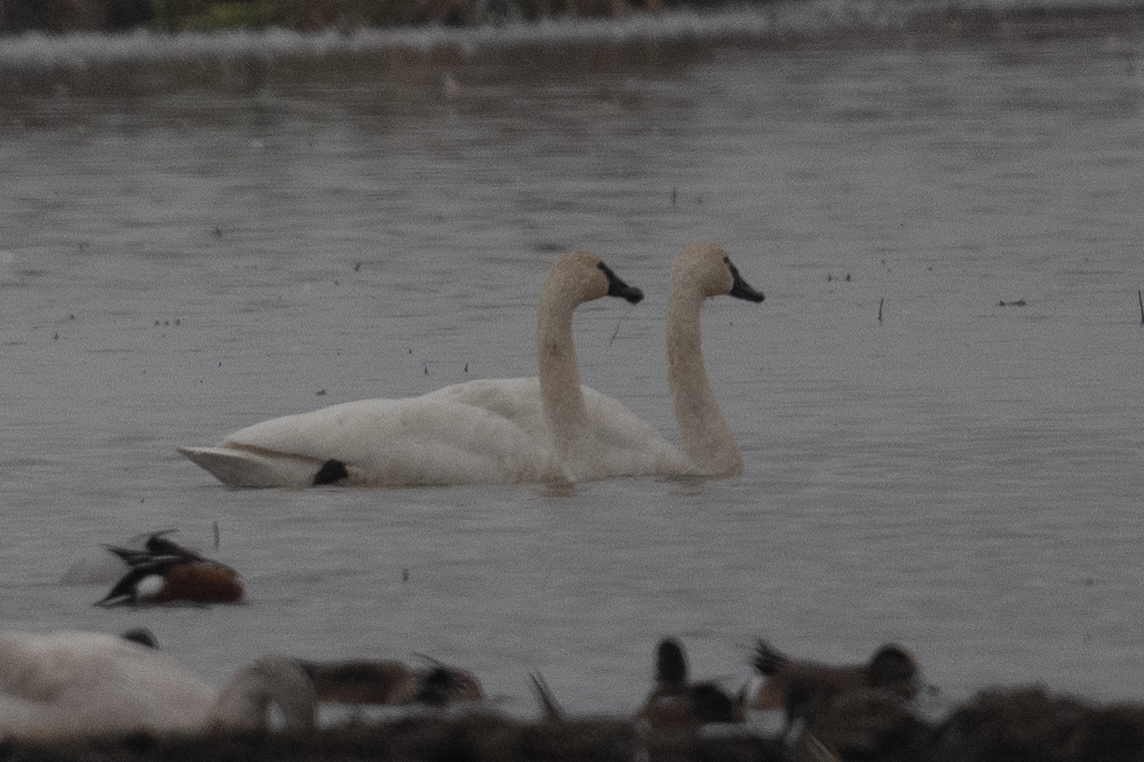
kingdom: Animalia
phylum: Chordata
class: Aves
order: Anseriformes
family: Anatidae
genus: Cygnus
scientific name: Cygnus columbianus
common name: Tundra swan
